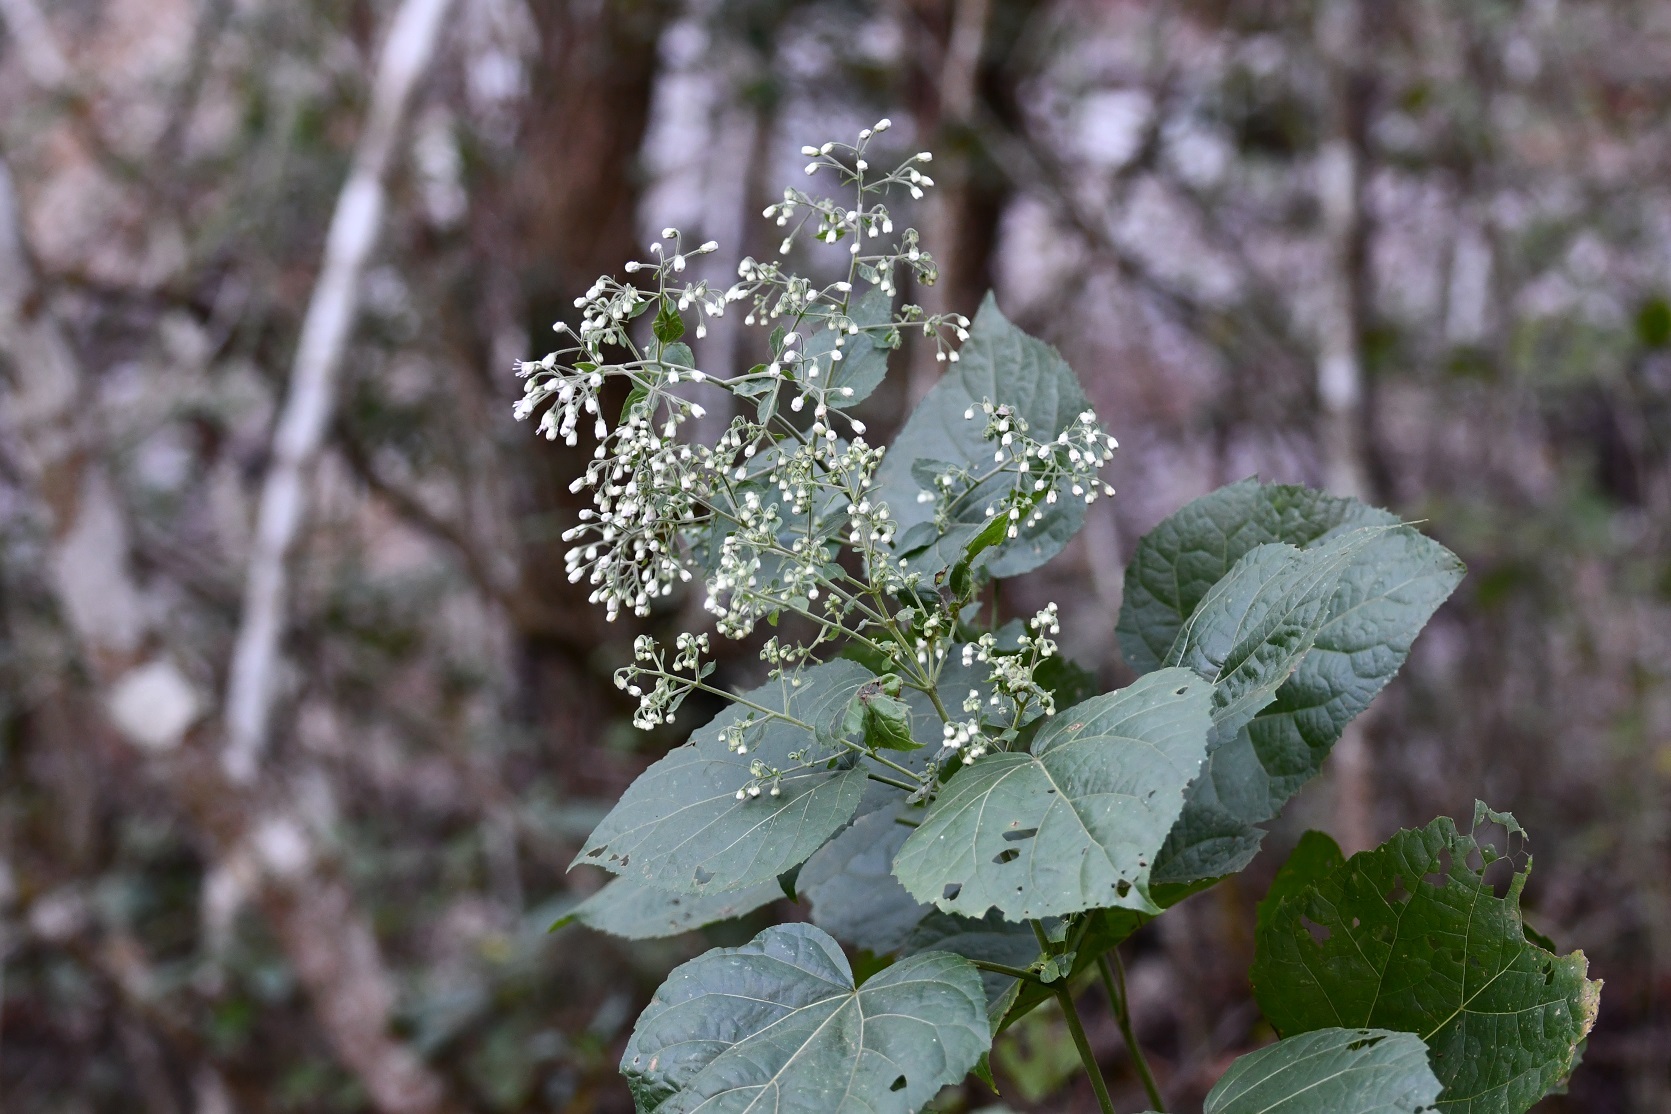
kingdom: Plantae
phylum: Tracheophyta
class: Magnoliopsida
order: Asterales
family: Asteraceae
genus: Peteravenia
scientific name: Peteravenia schultzii
